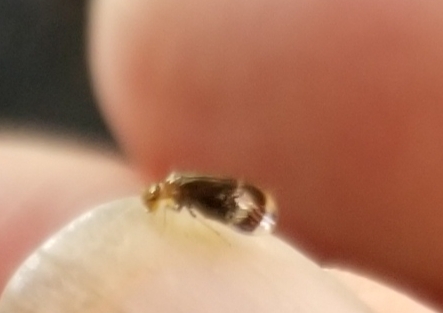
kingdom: Animalia
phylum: Arthropoda
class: Insecta
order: Psocodea
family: Amphipsocidae
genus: Polypsocus
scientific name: Polypsocus corruptus
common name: Corrupt barklouse
